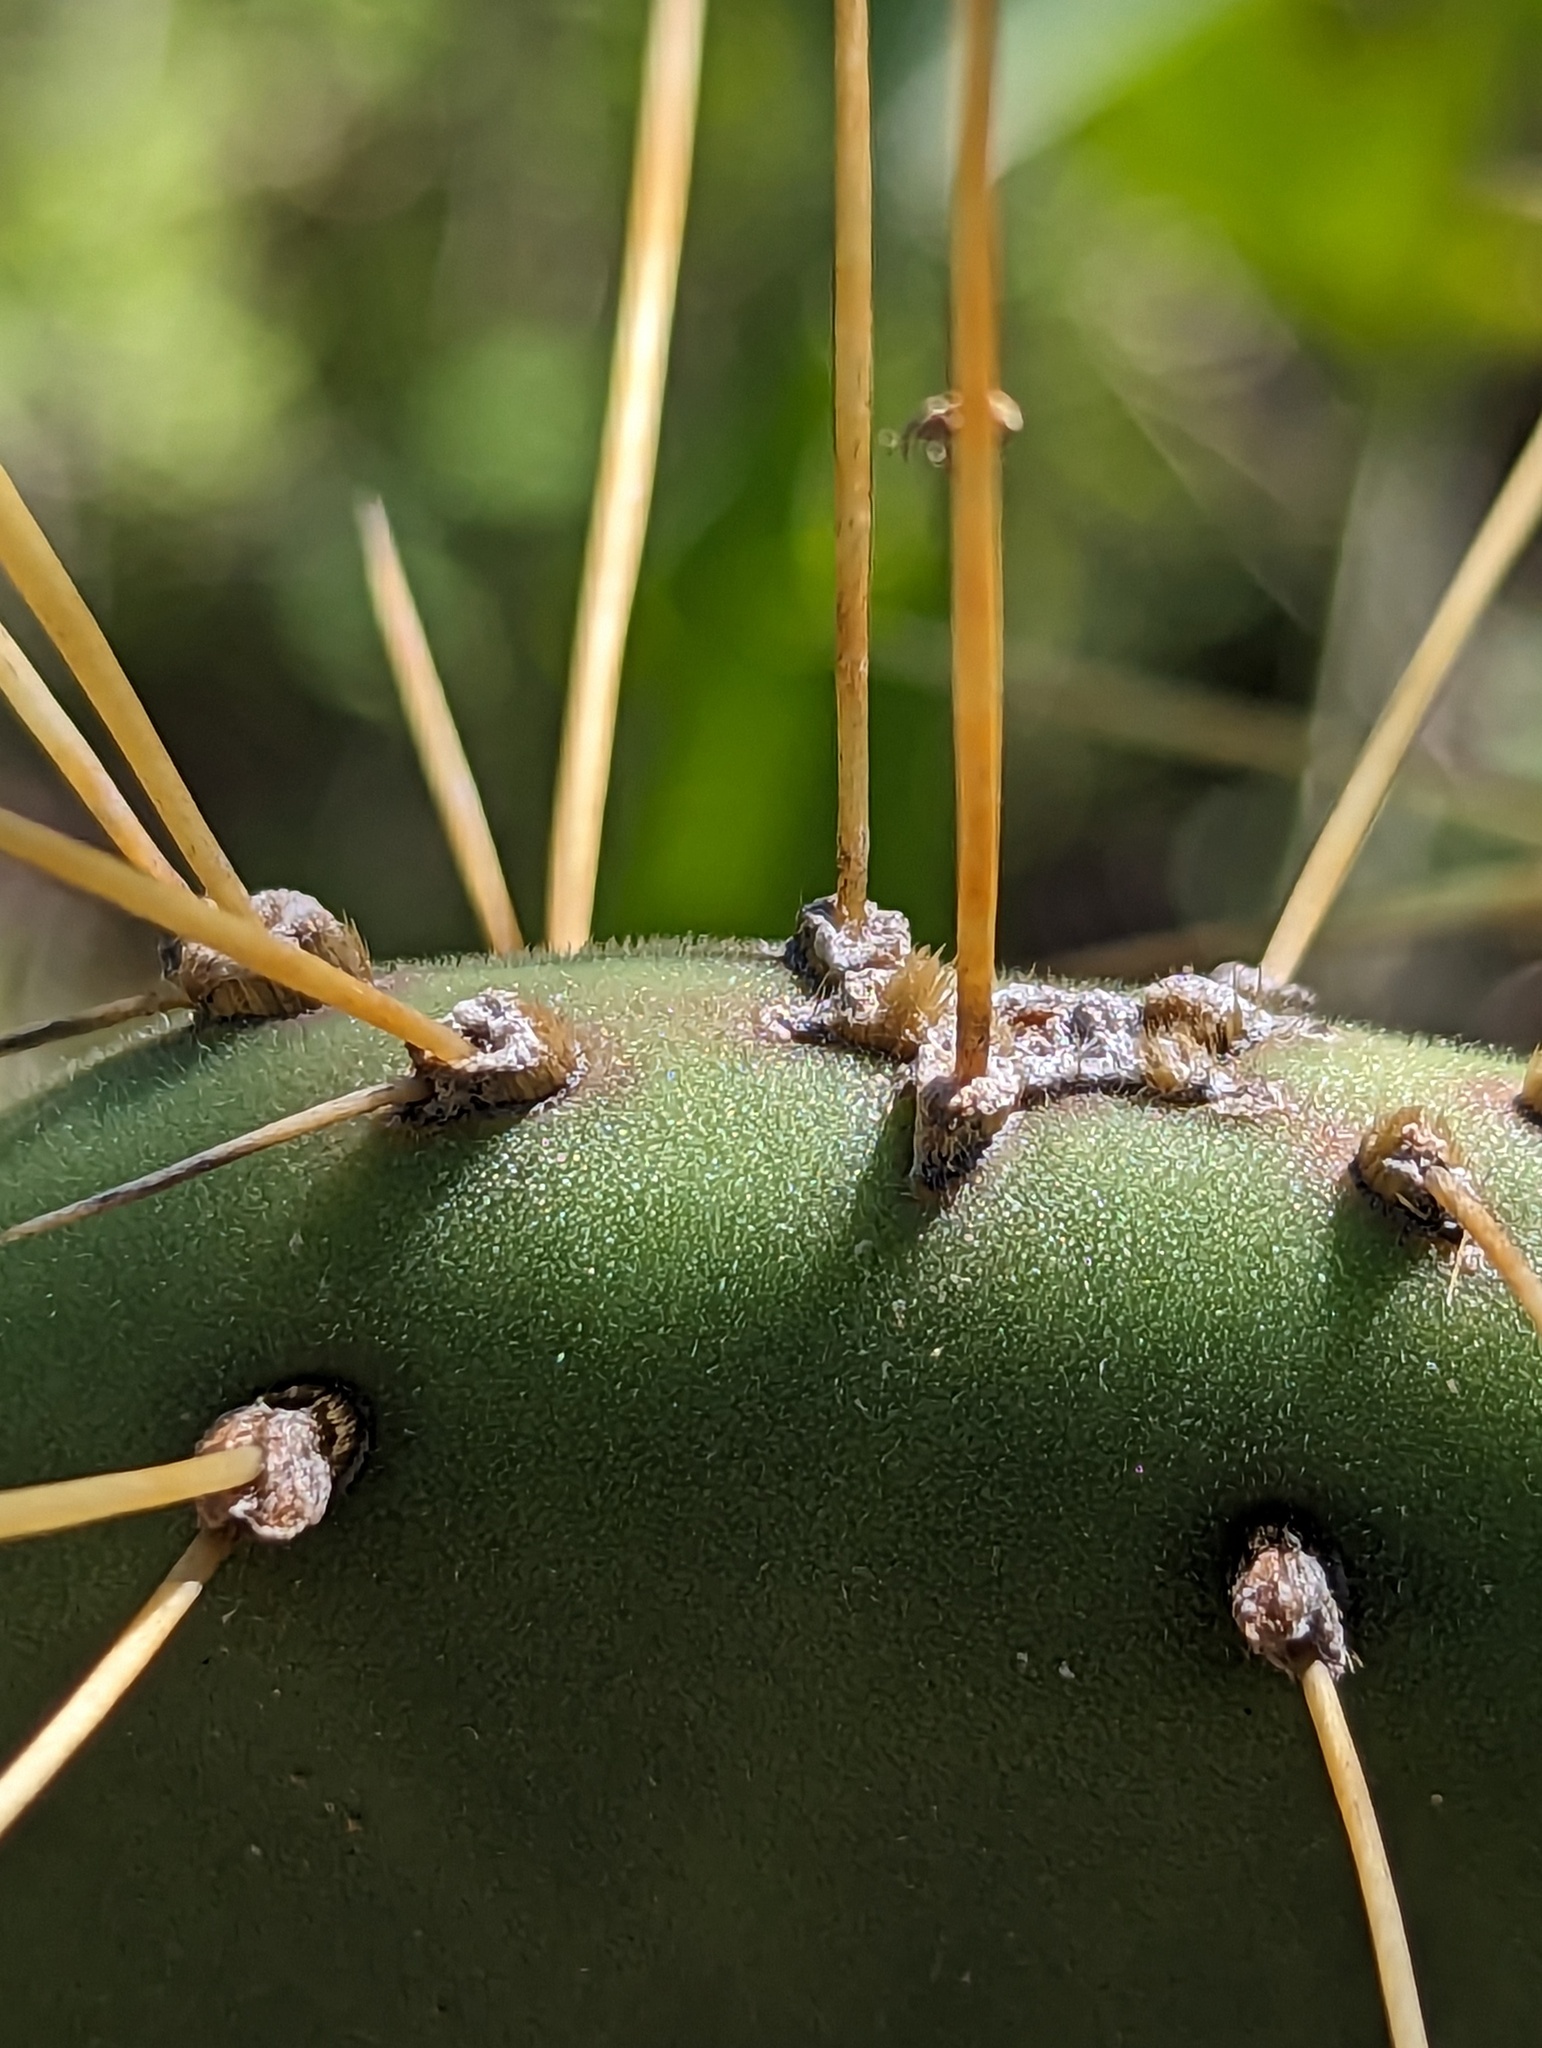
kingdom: Plantae
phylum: Tracheophyta
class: Magnoliopsida
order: Caryophyllales
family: Cactaceae
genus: Opuntia
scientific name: Opuntia caboensis
